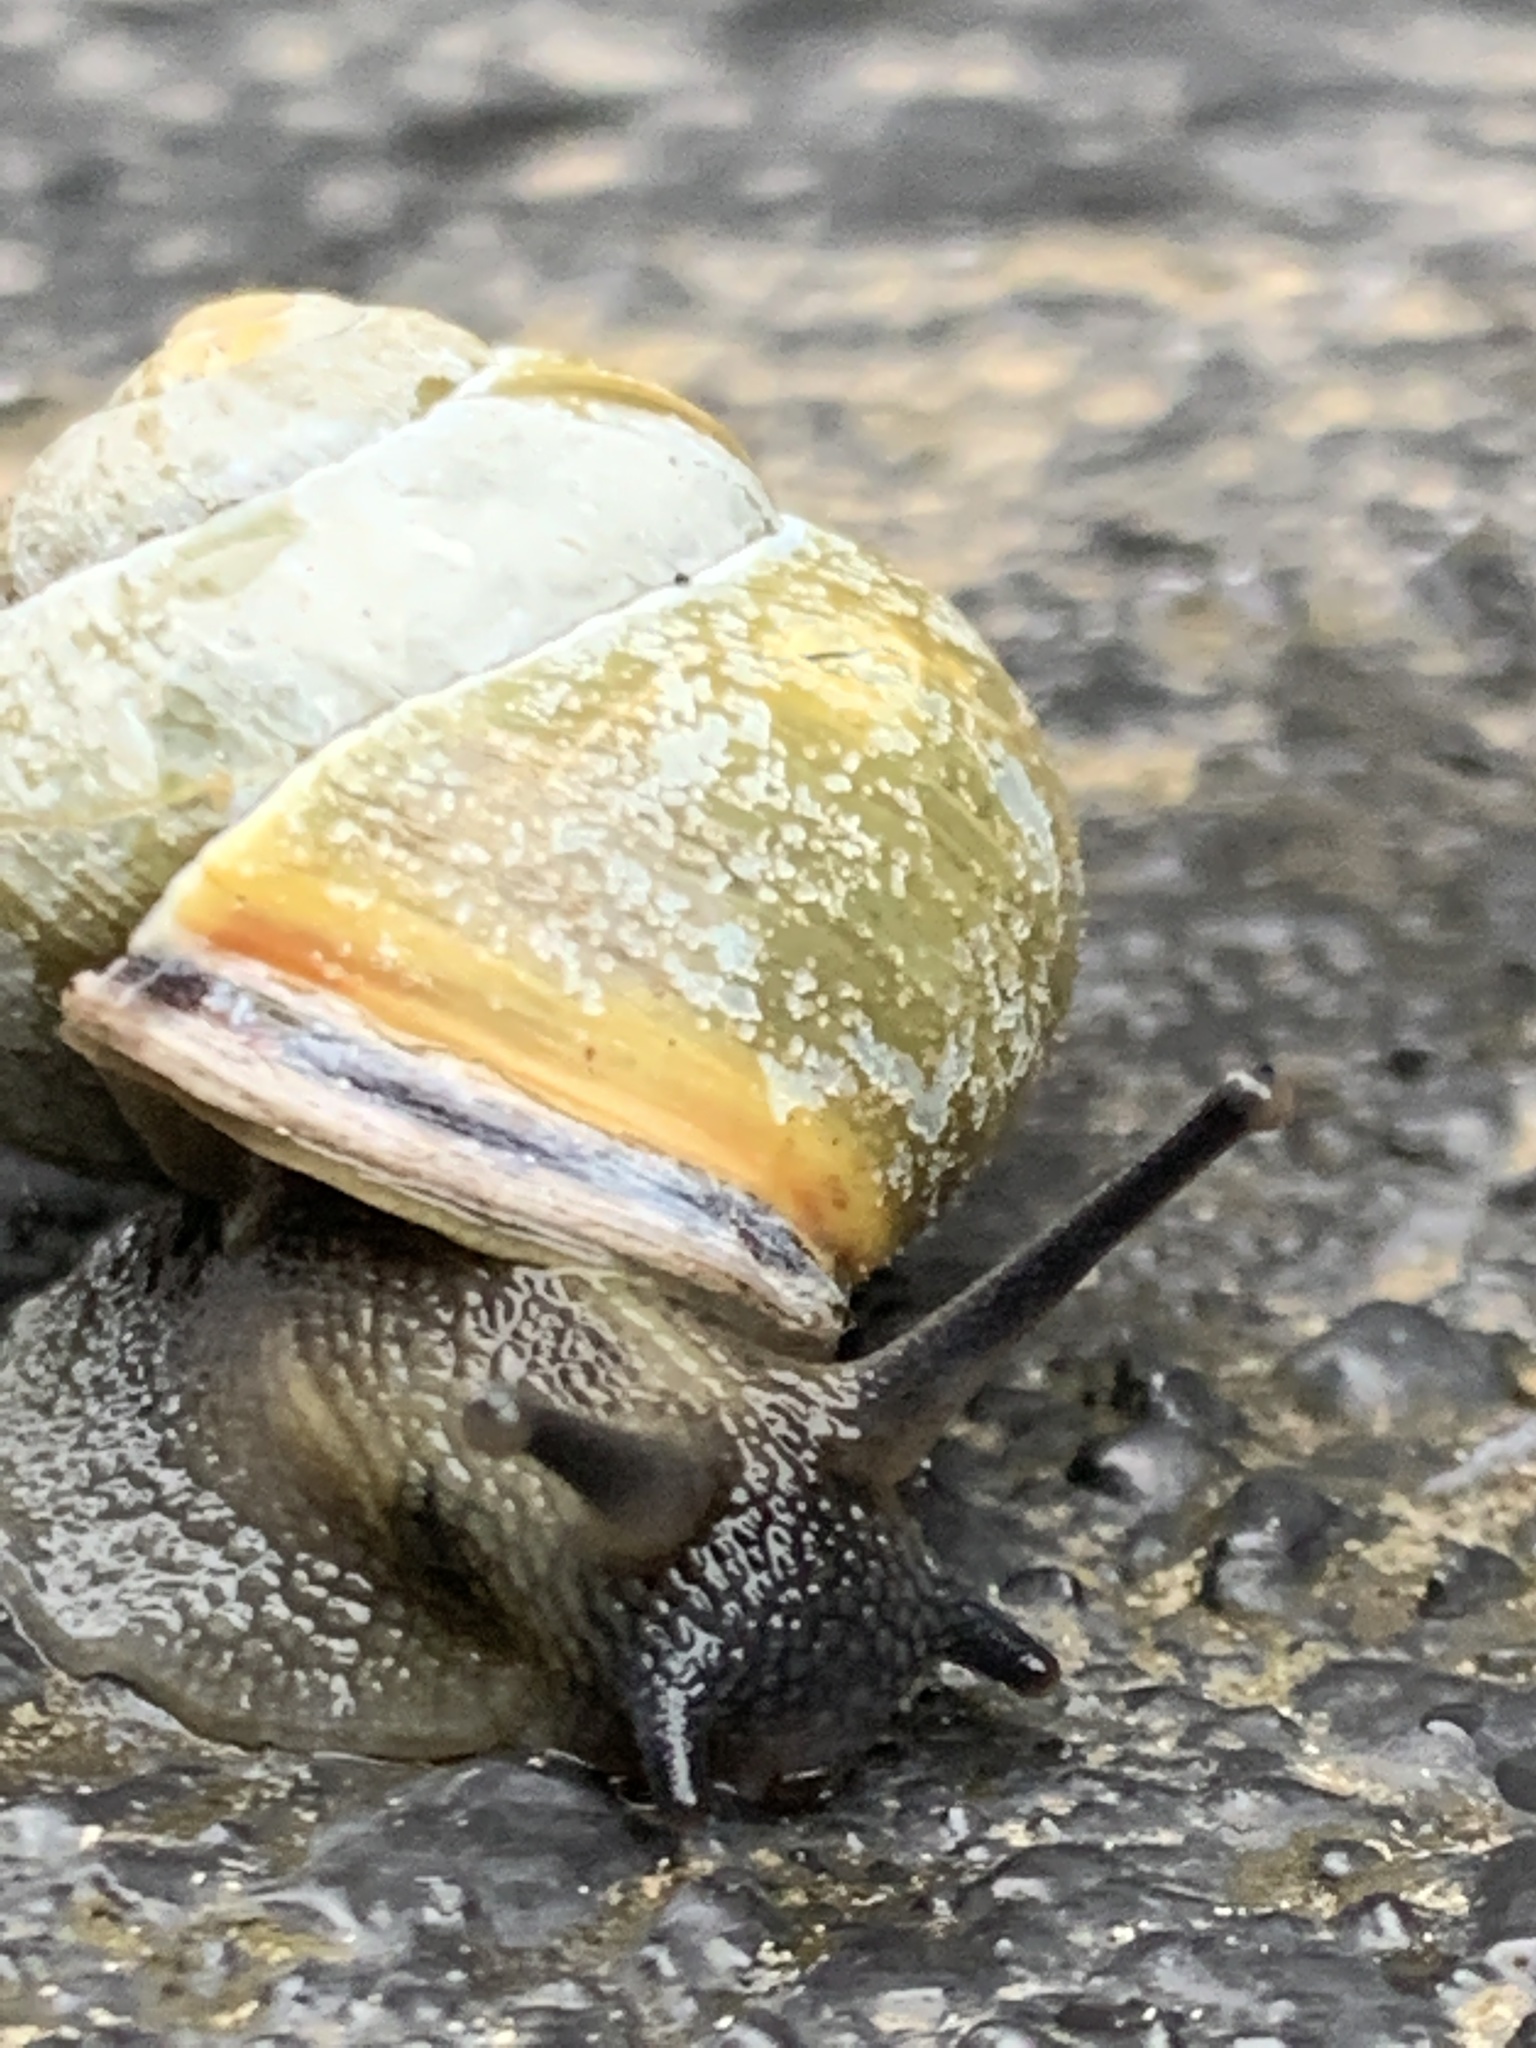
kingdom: Animalia
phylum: Mollusca
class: Gastropoda
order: Stylommatophora
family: Helicidae
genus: Cepaea
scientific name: Cepaea nemoralis
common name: Grovesnail
